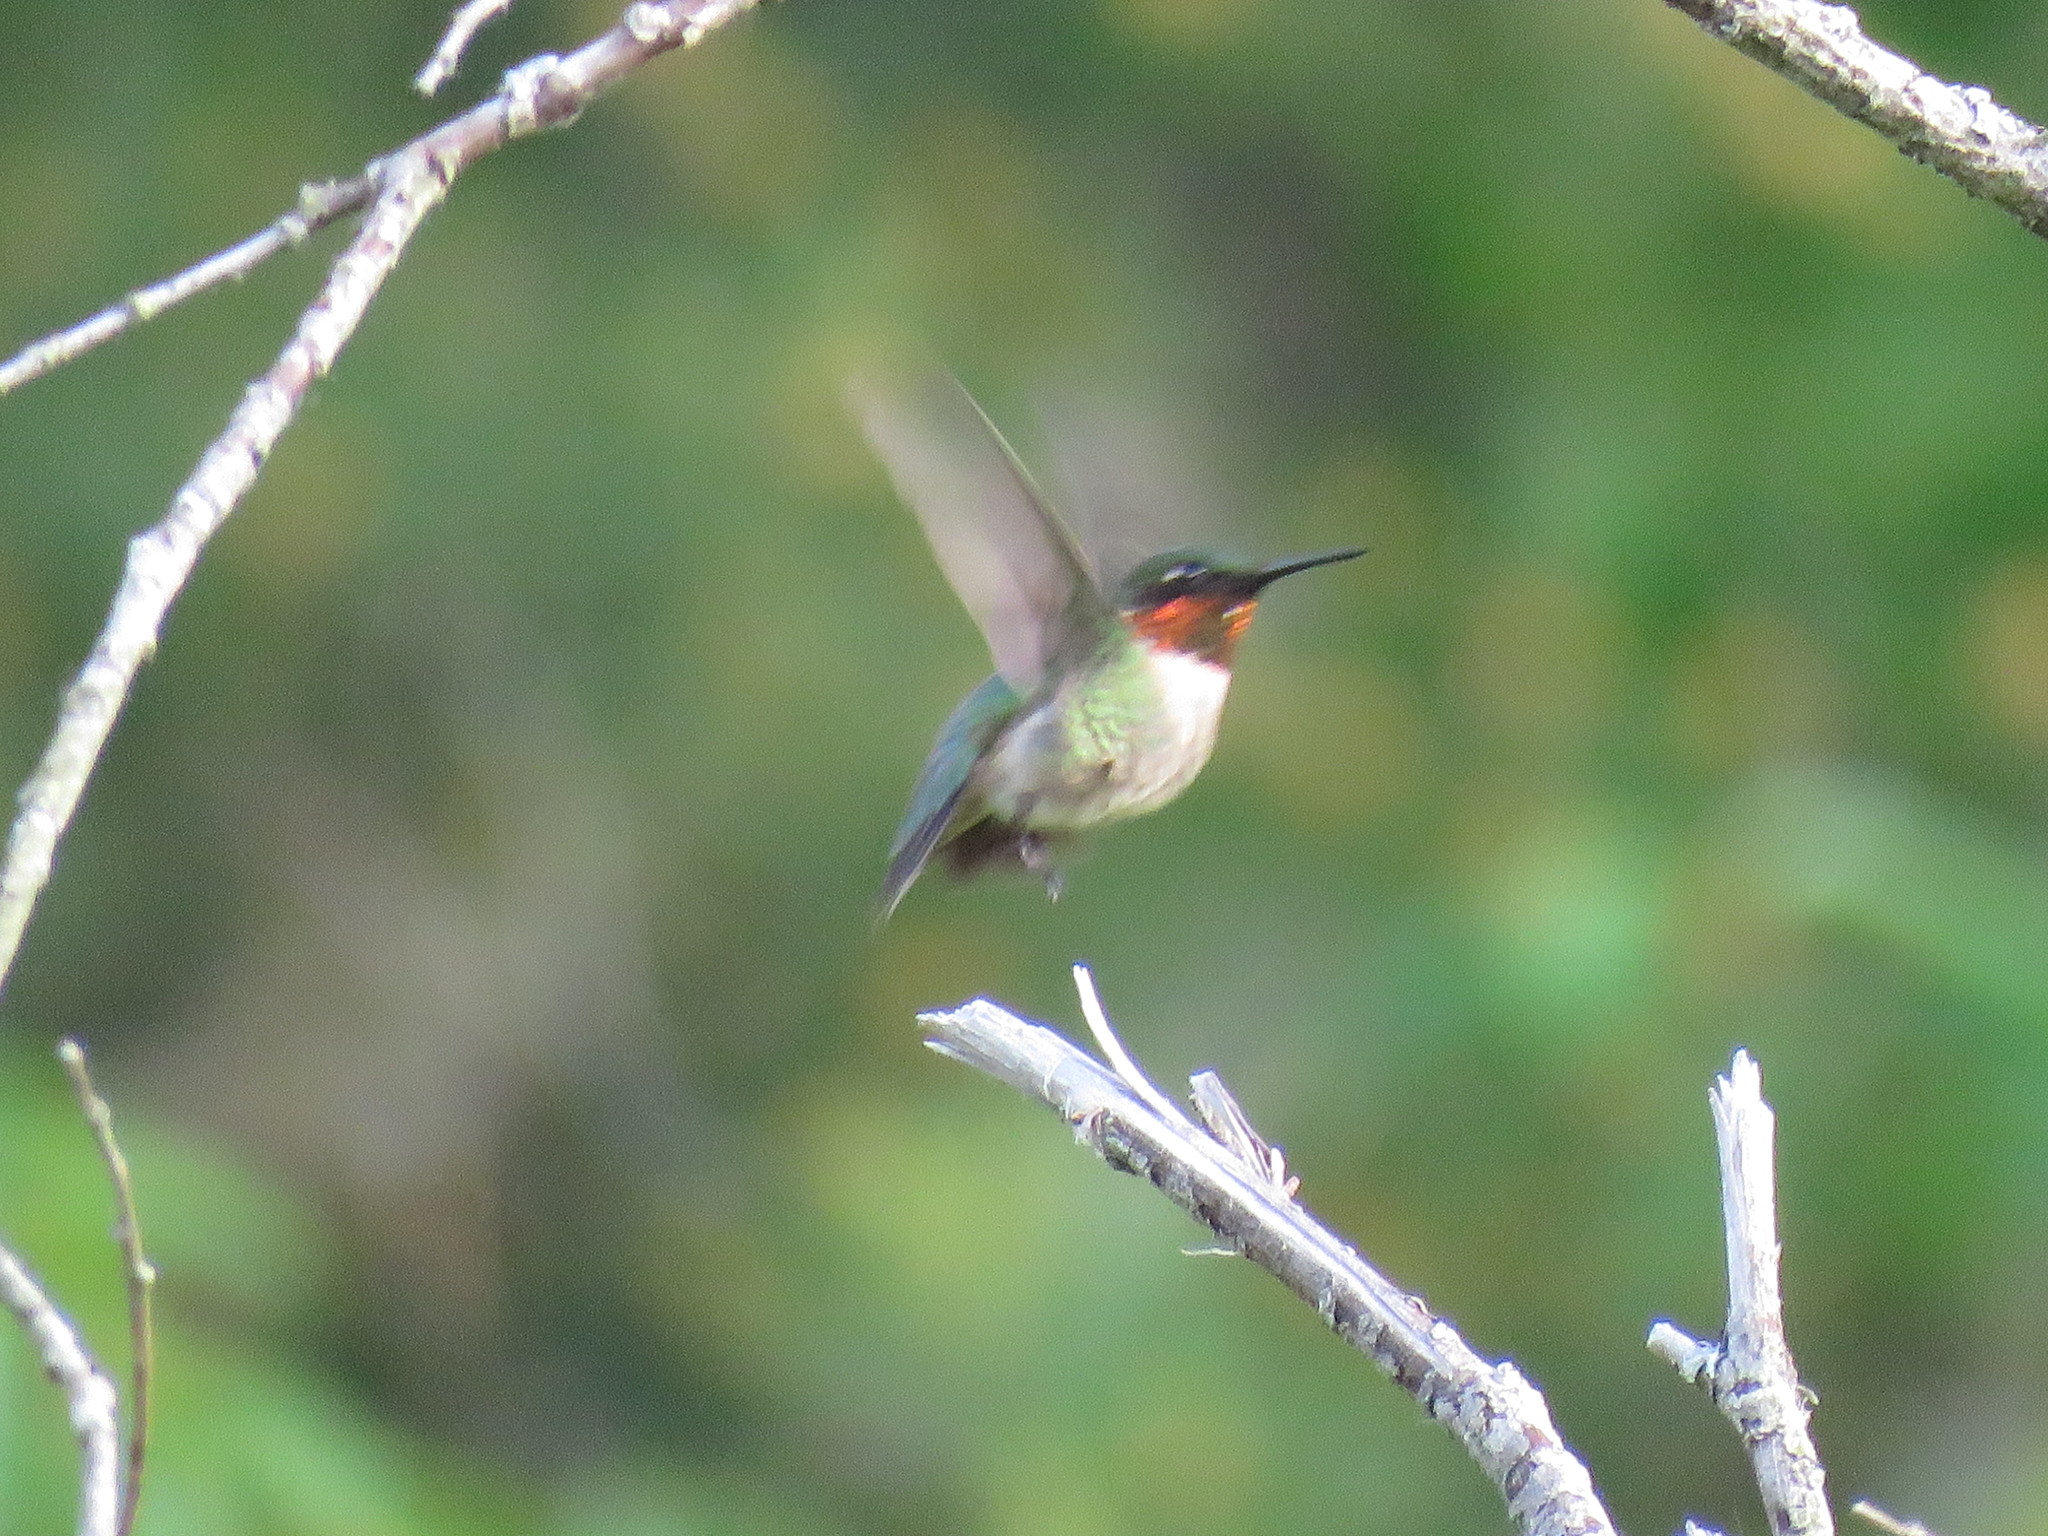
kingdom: Animalia
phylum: Chordata
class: Aves
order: Apodiformes
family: Trochilidae
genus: Archilochus
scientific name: Archilochus colubris
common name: Ruby-throated hummingbird
